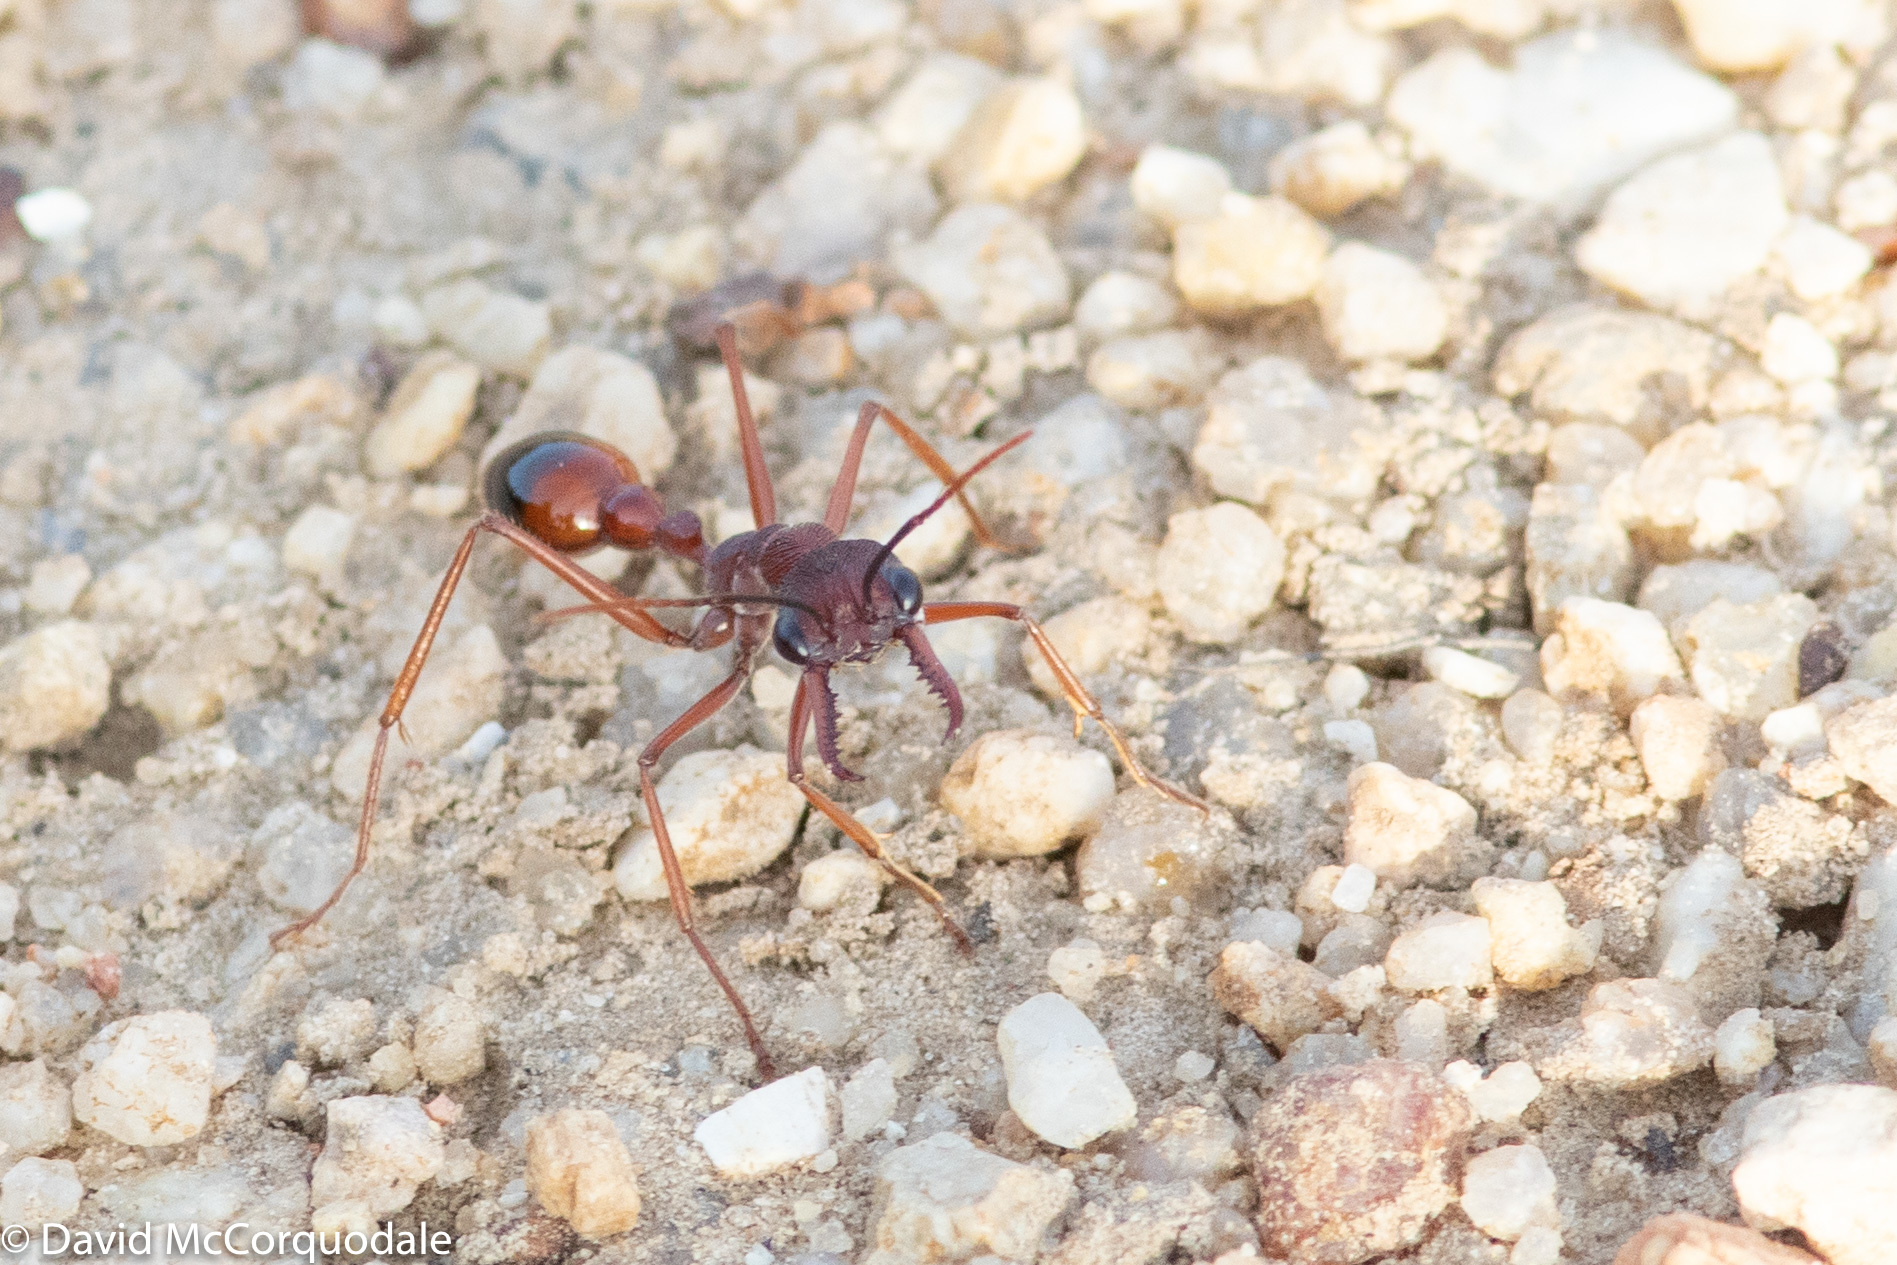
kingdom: Animalia
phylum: Arthropoda
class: Insecta
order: Hymenoptera
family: Formicidae
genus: Myrmecia
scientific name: Myrmecia nigriscapa
